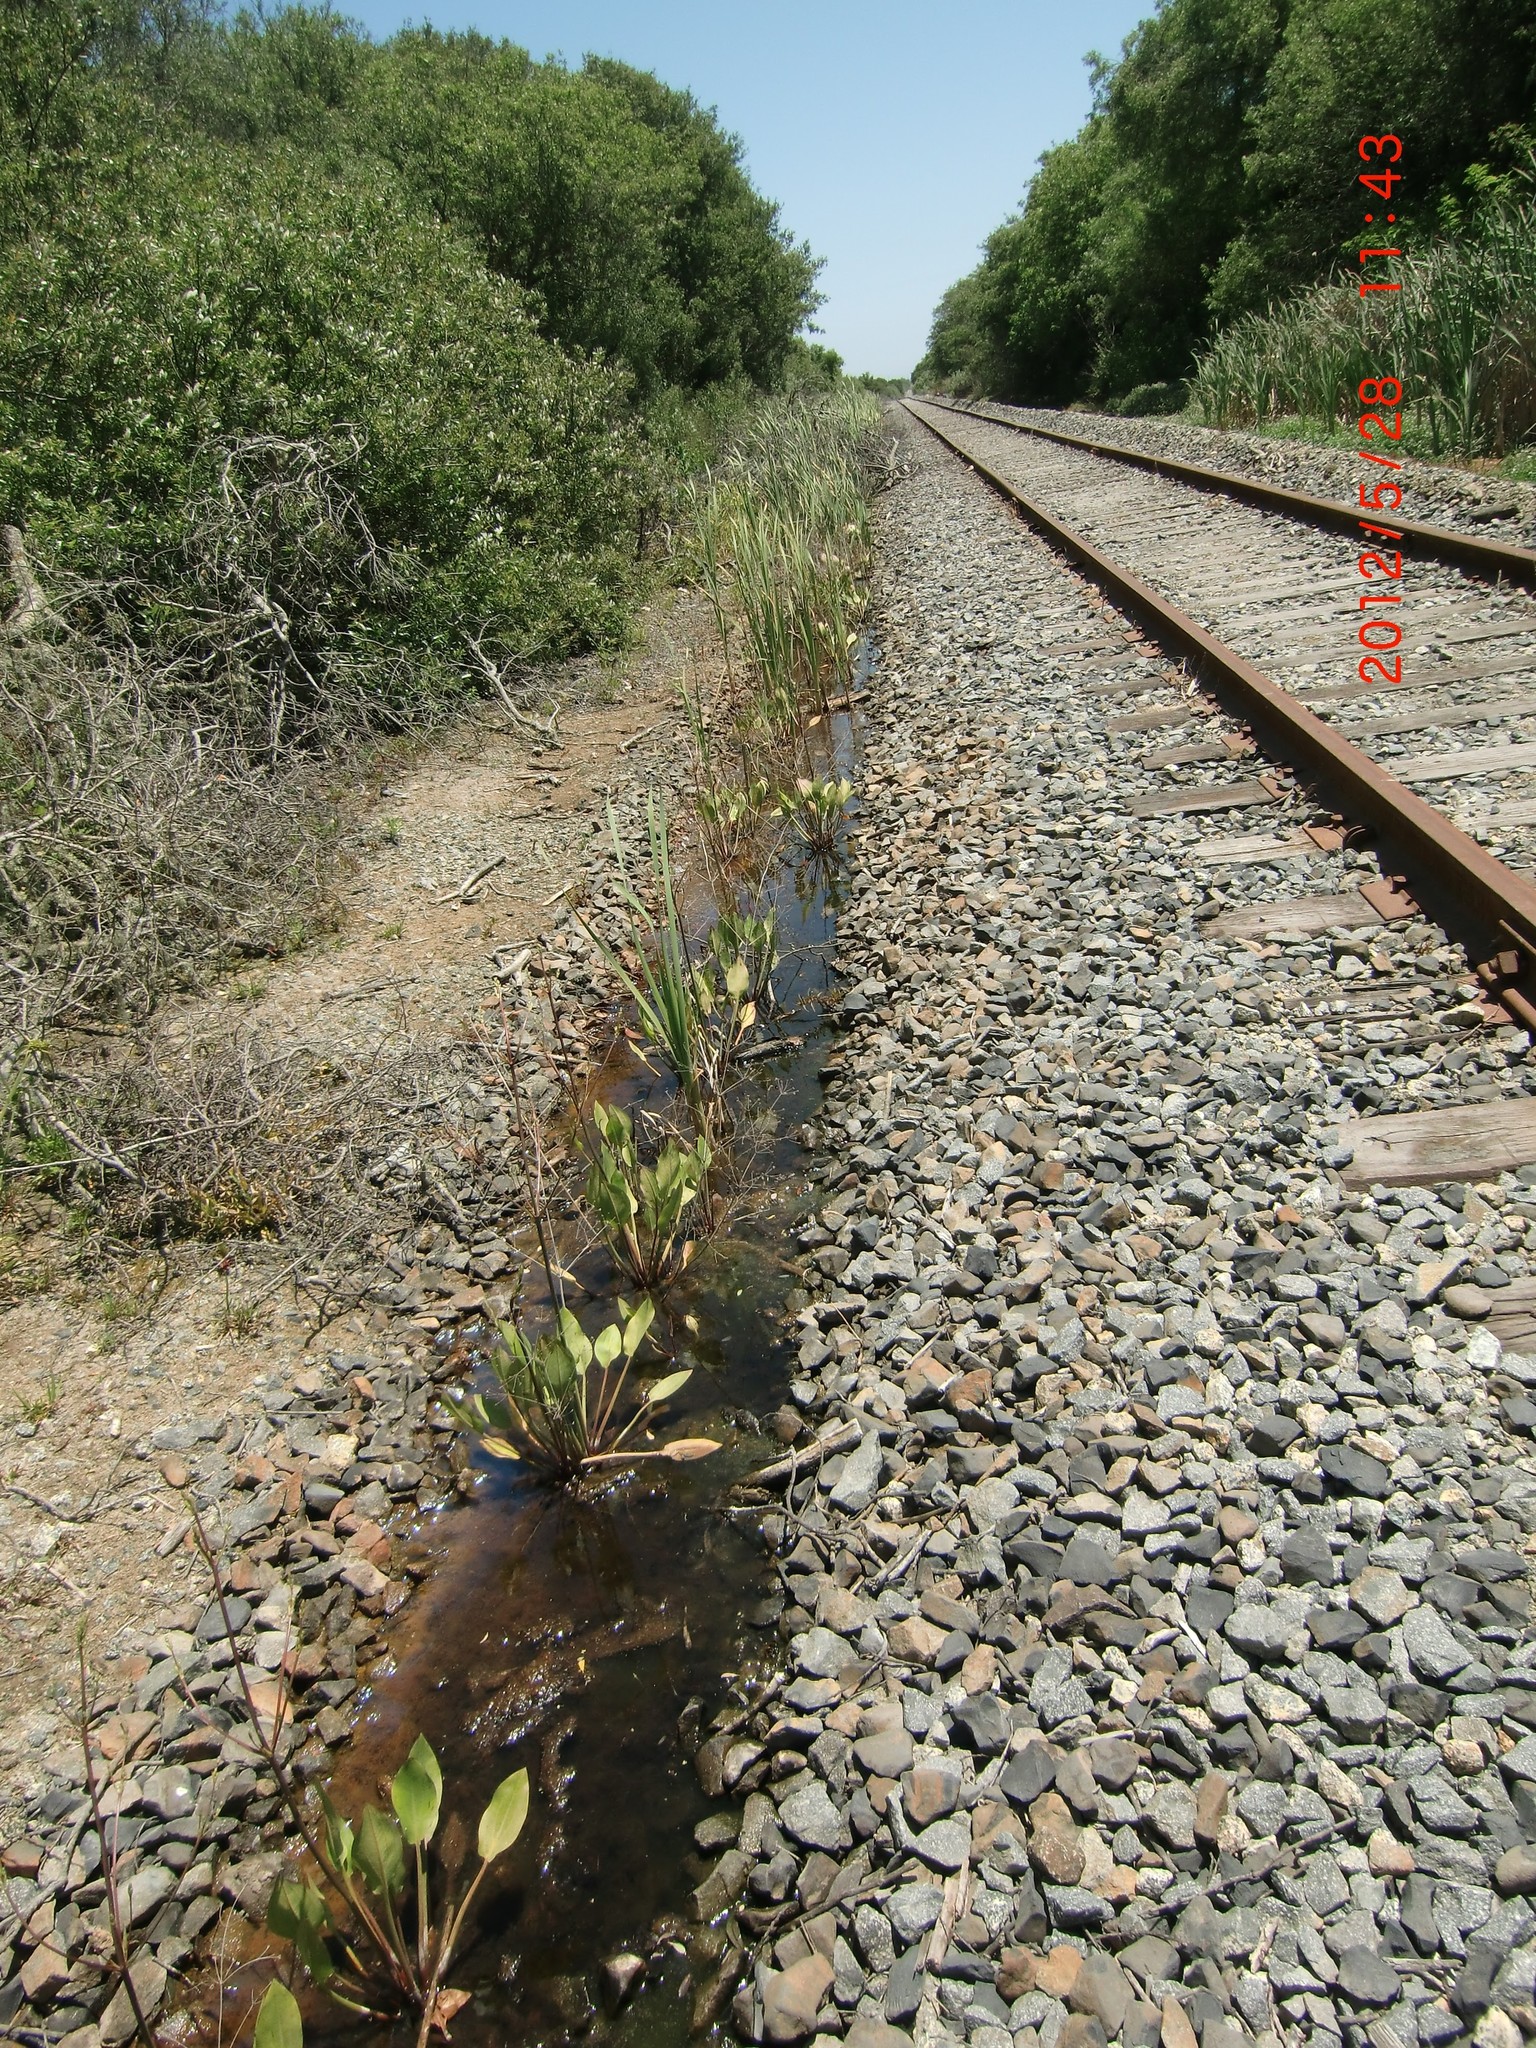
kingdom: Plantae
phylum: Tracheophyta
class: Liliopsida
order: Alismatales
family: Alismataceae
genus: Alisma
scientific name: Alisma triviale
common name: Northern water-plantain
